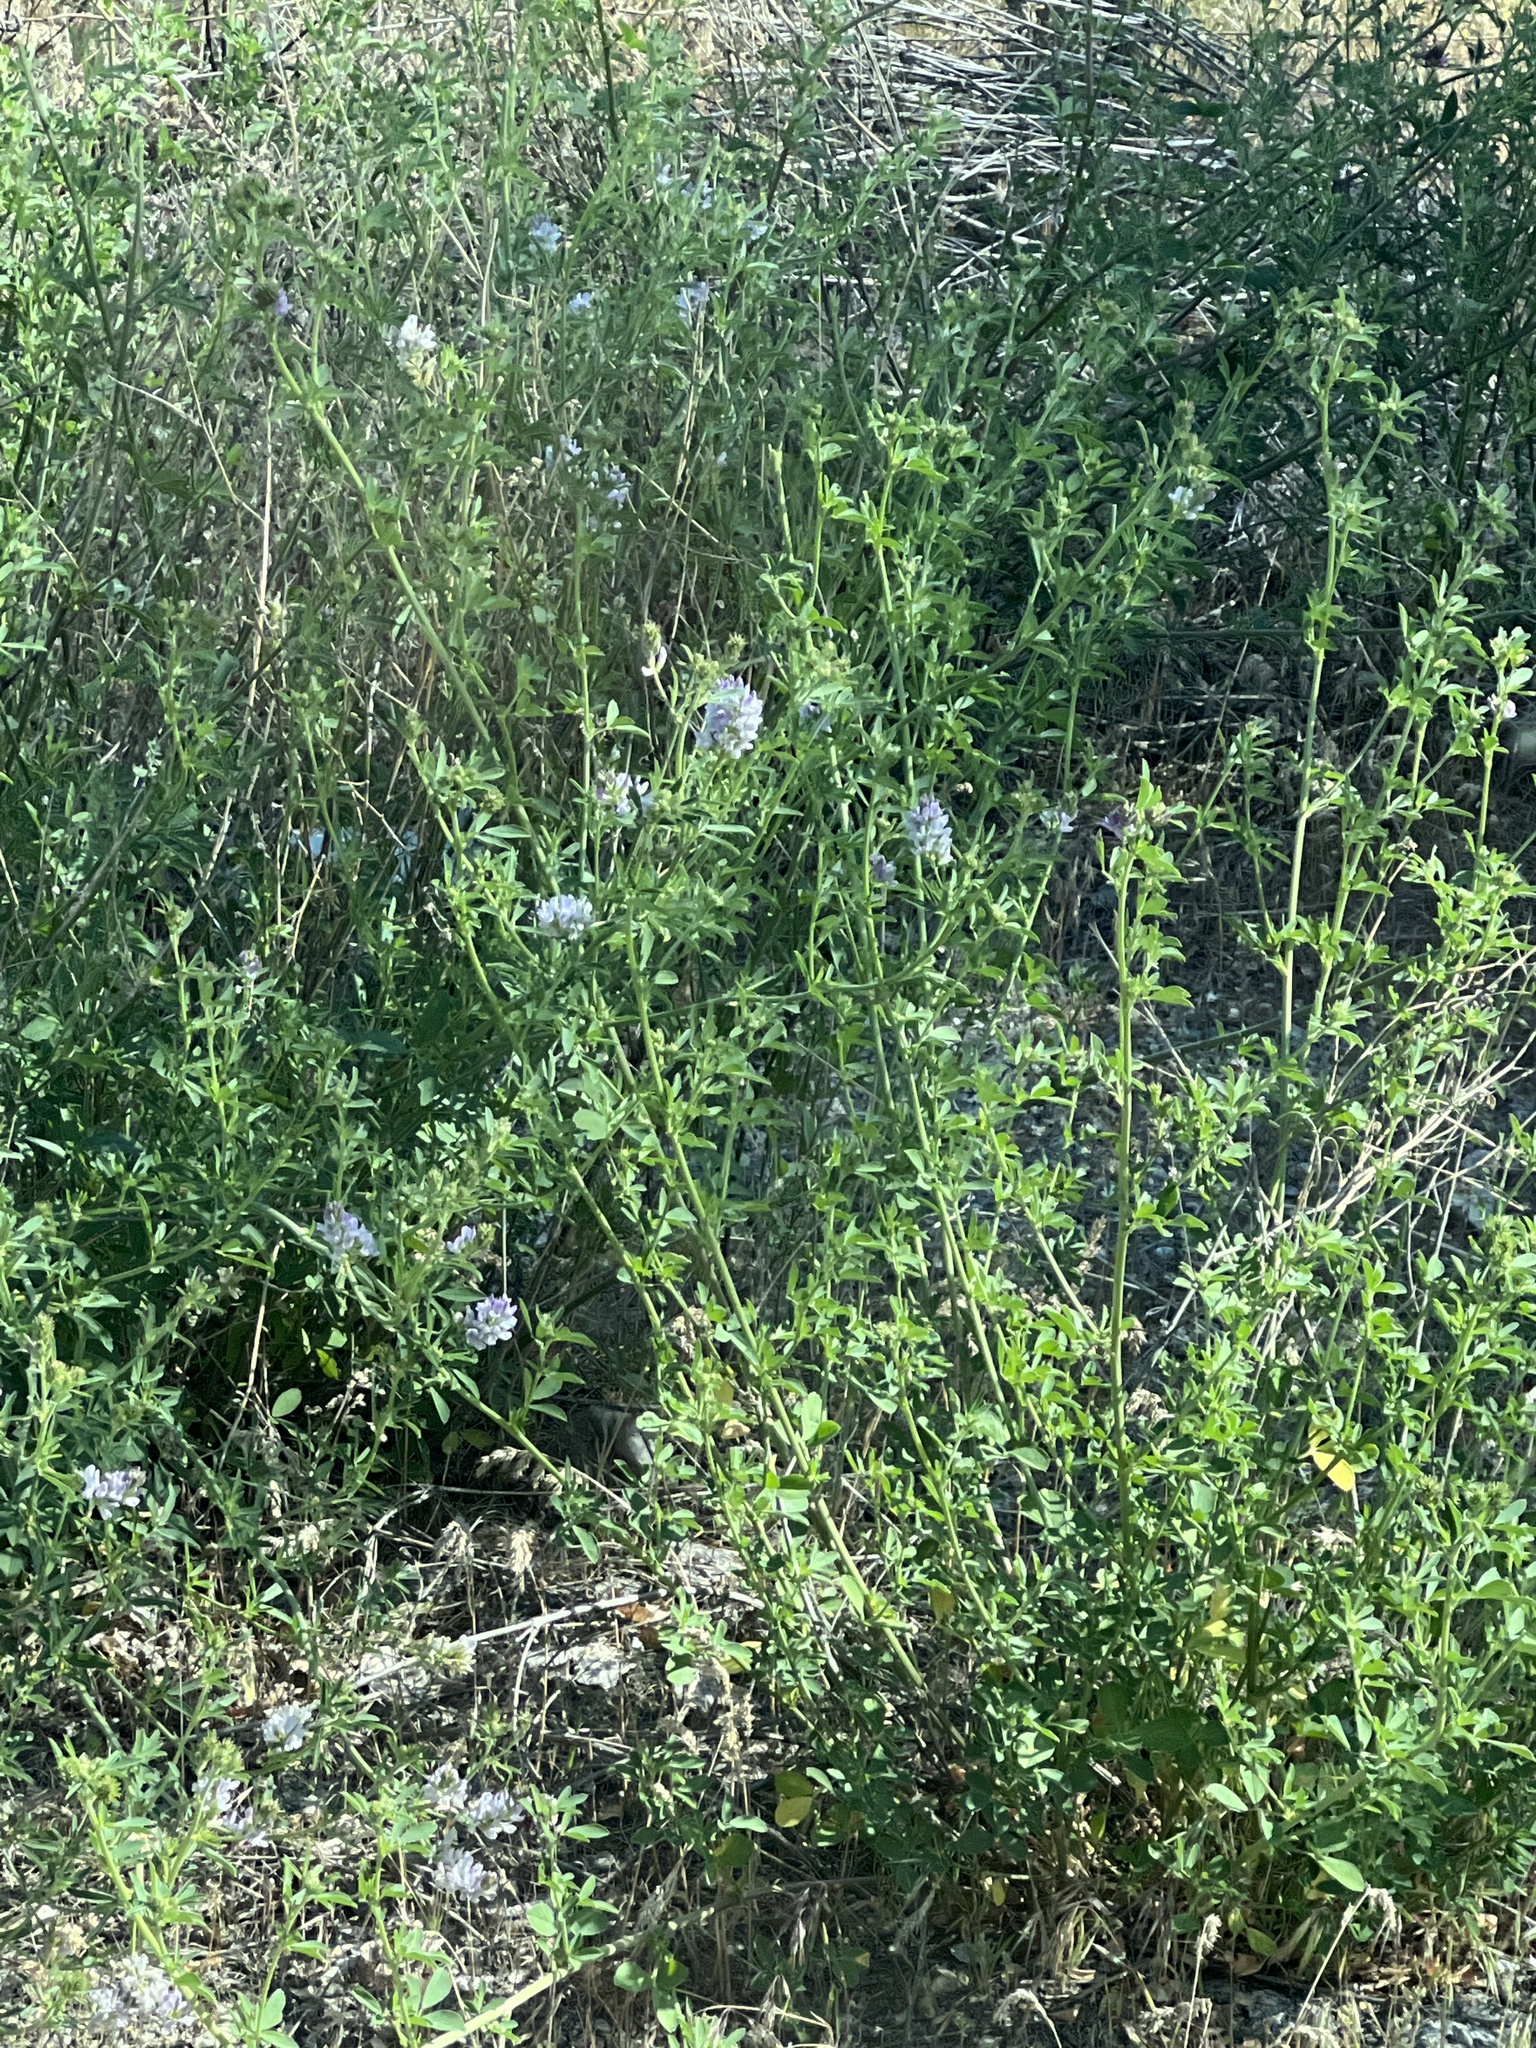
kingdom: Plantae
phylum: Tracheophyta
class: Magnoliopsida
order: Fabales
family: Fabaceae
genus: Medicago
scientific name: Medicago sativa
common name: Alfalfa
